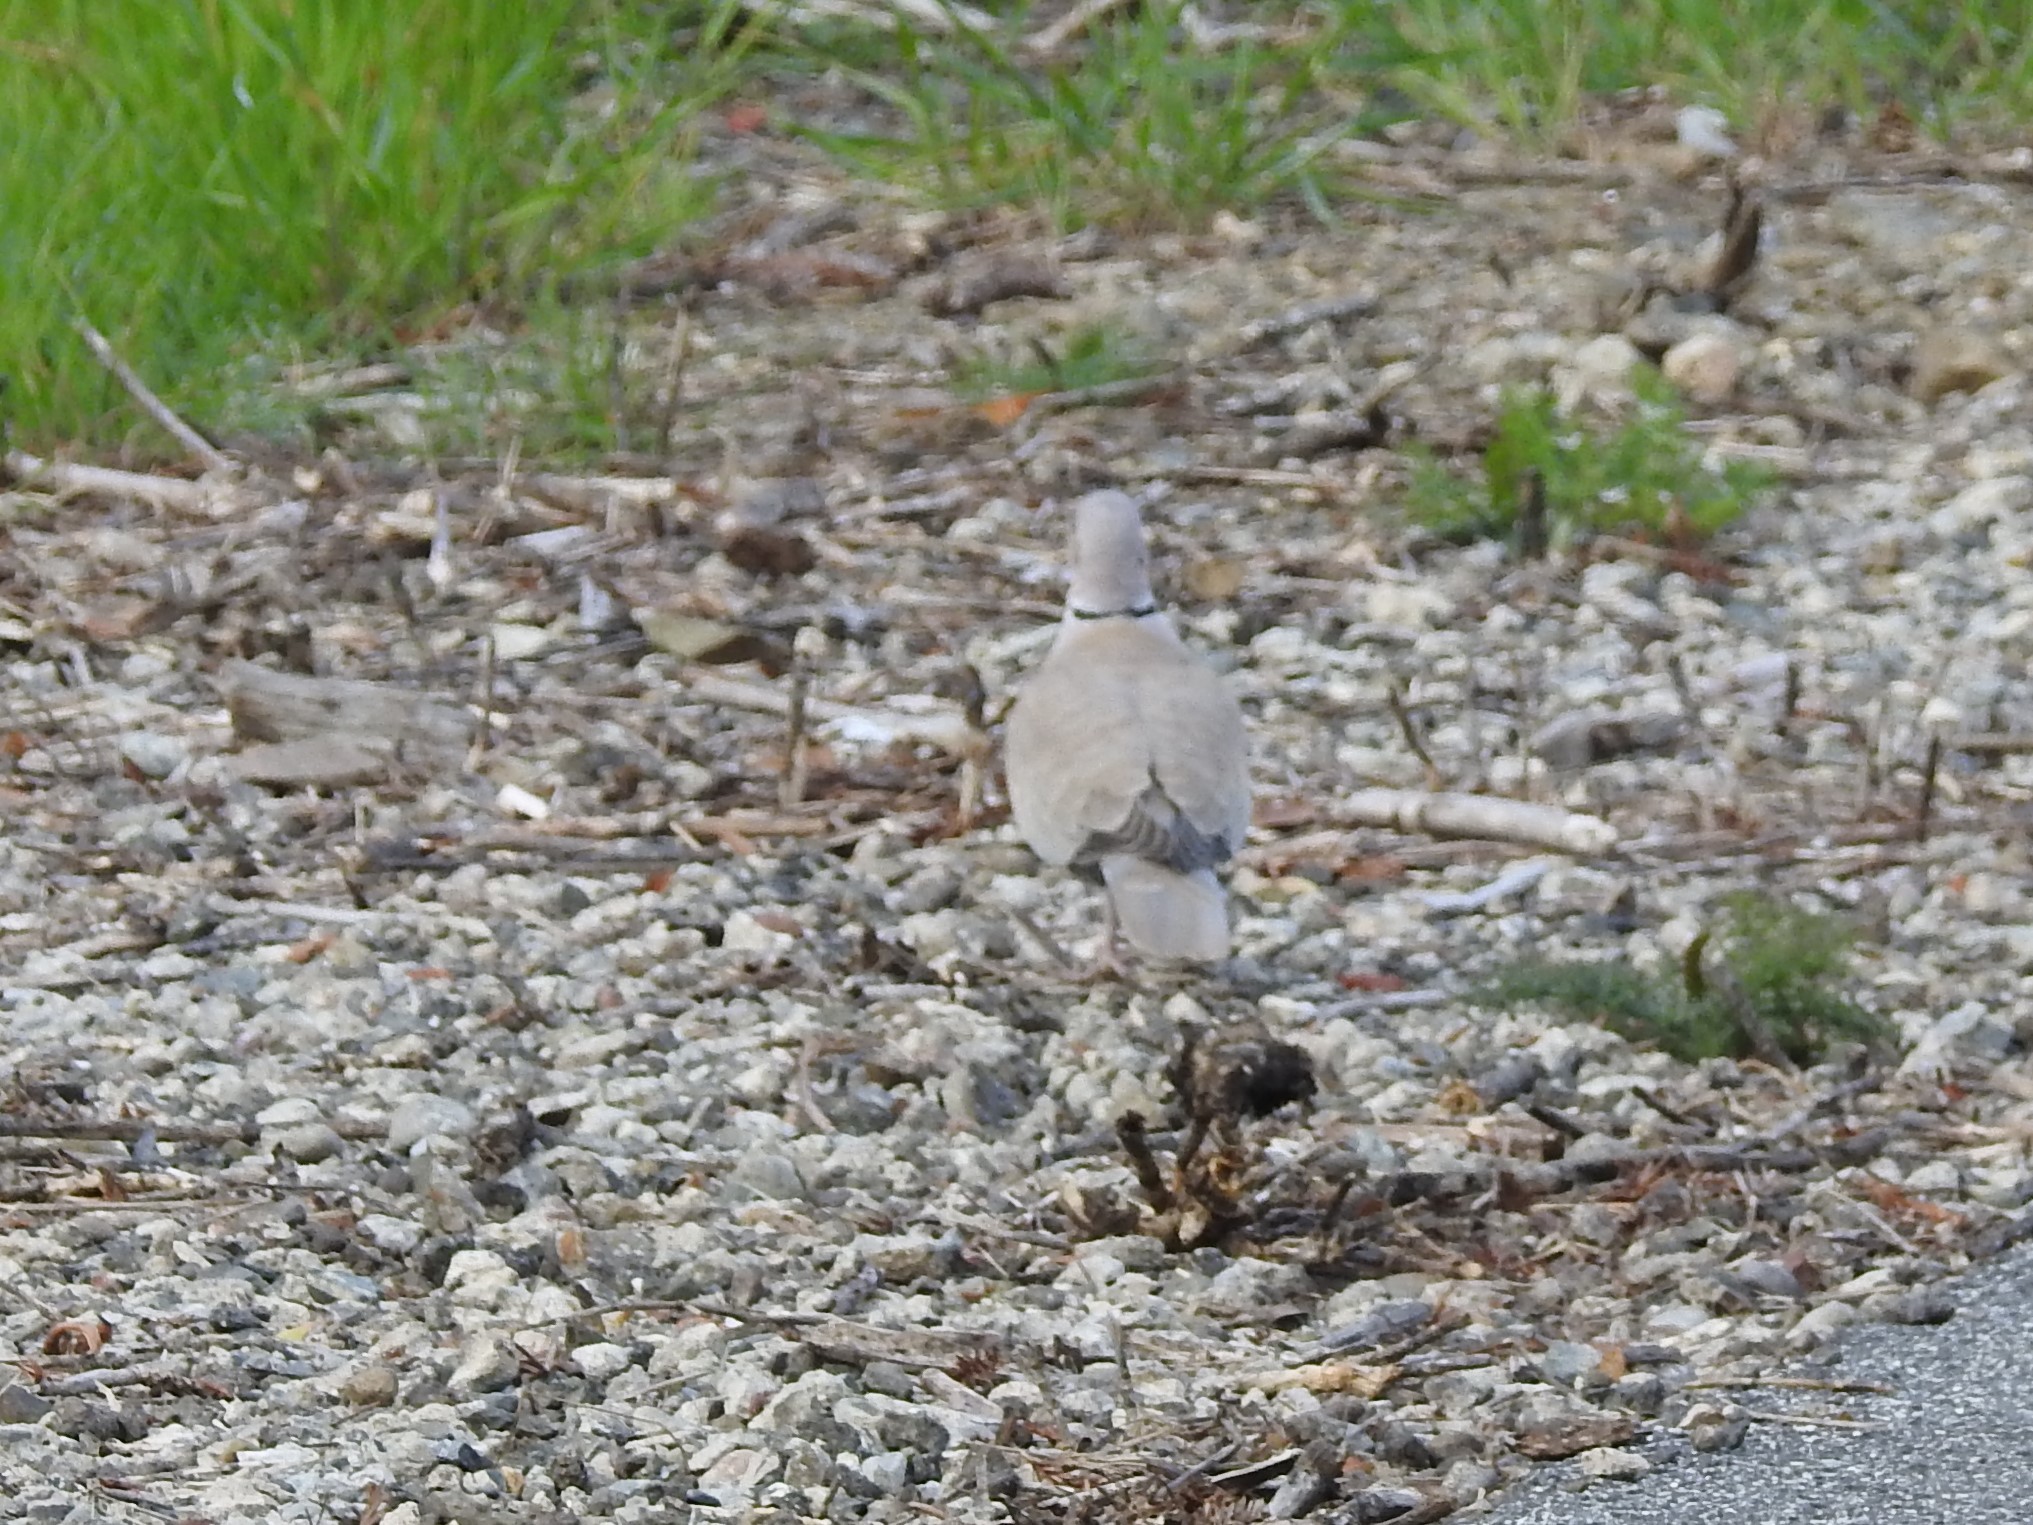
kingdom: Animalia
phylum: Chordata
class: Aves
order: Columbiformes
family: Columbidae
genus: Streptopelia
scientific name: Streptopelia decaocto
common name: Eurasian collared dove
